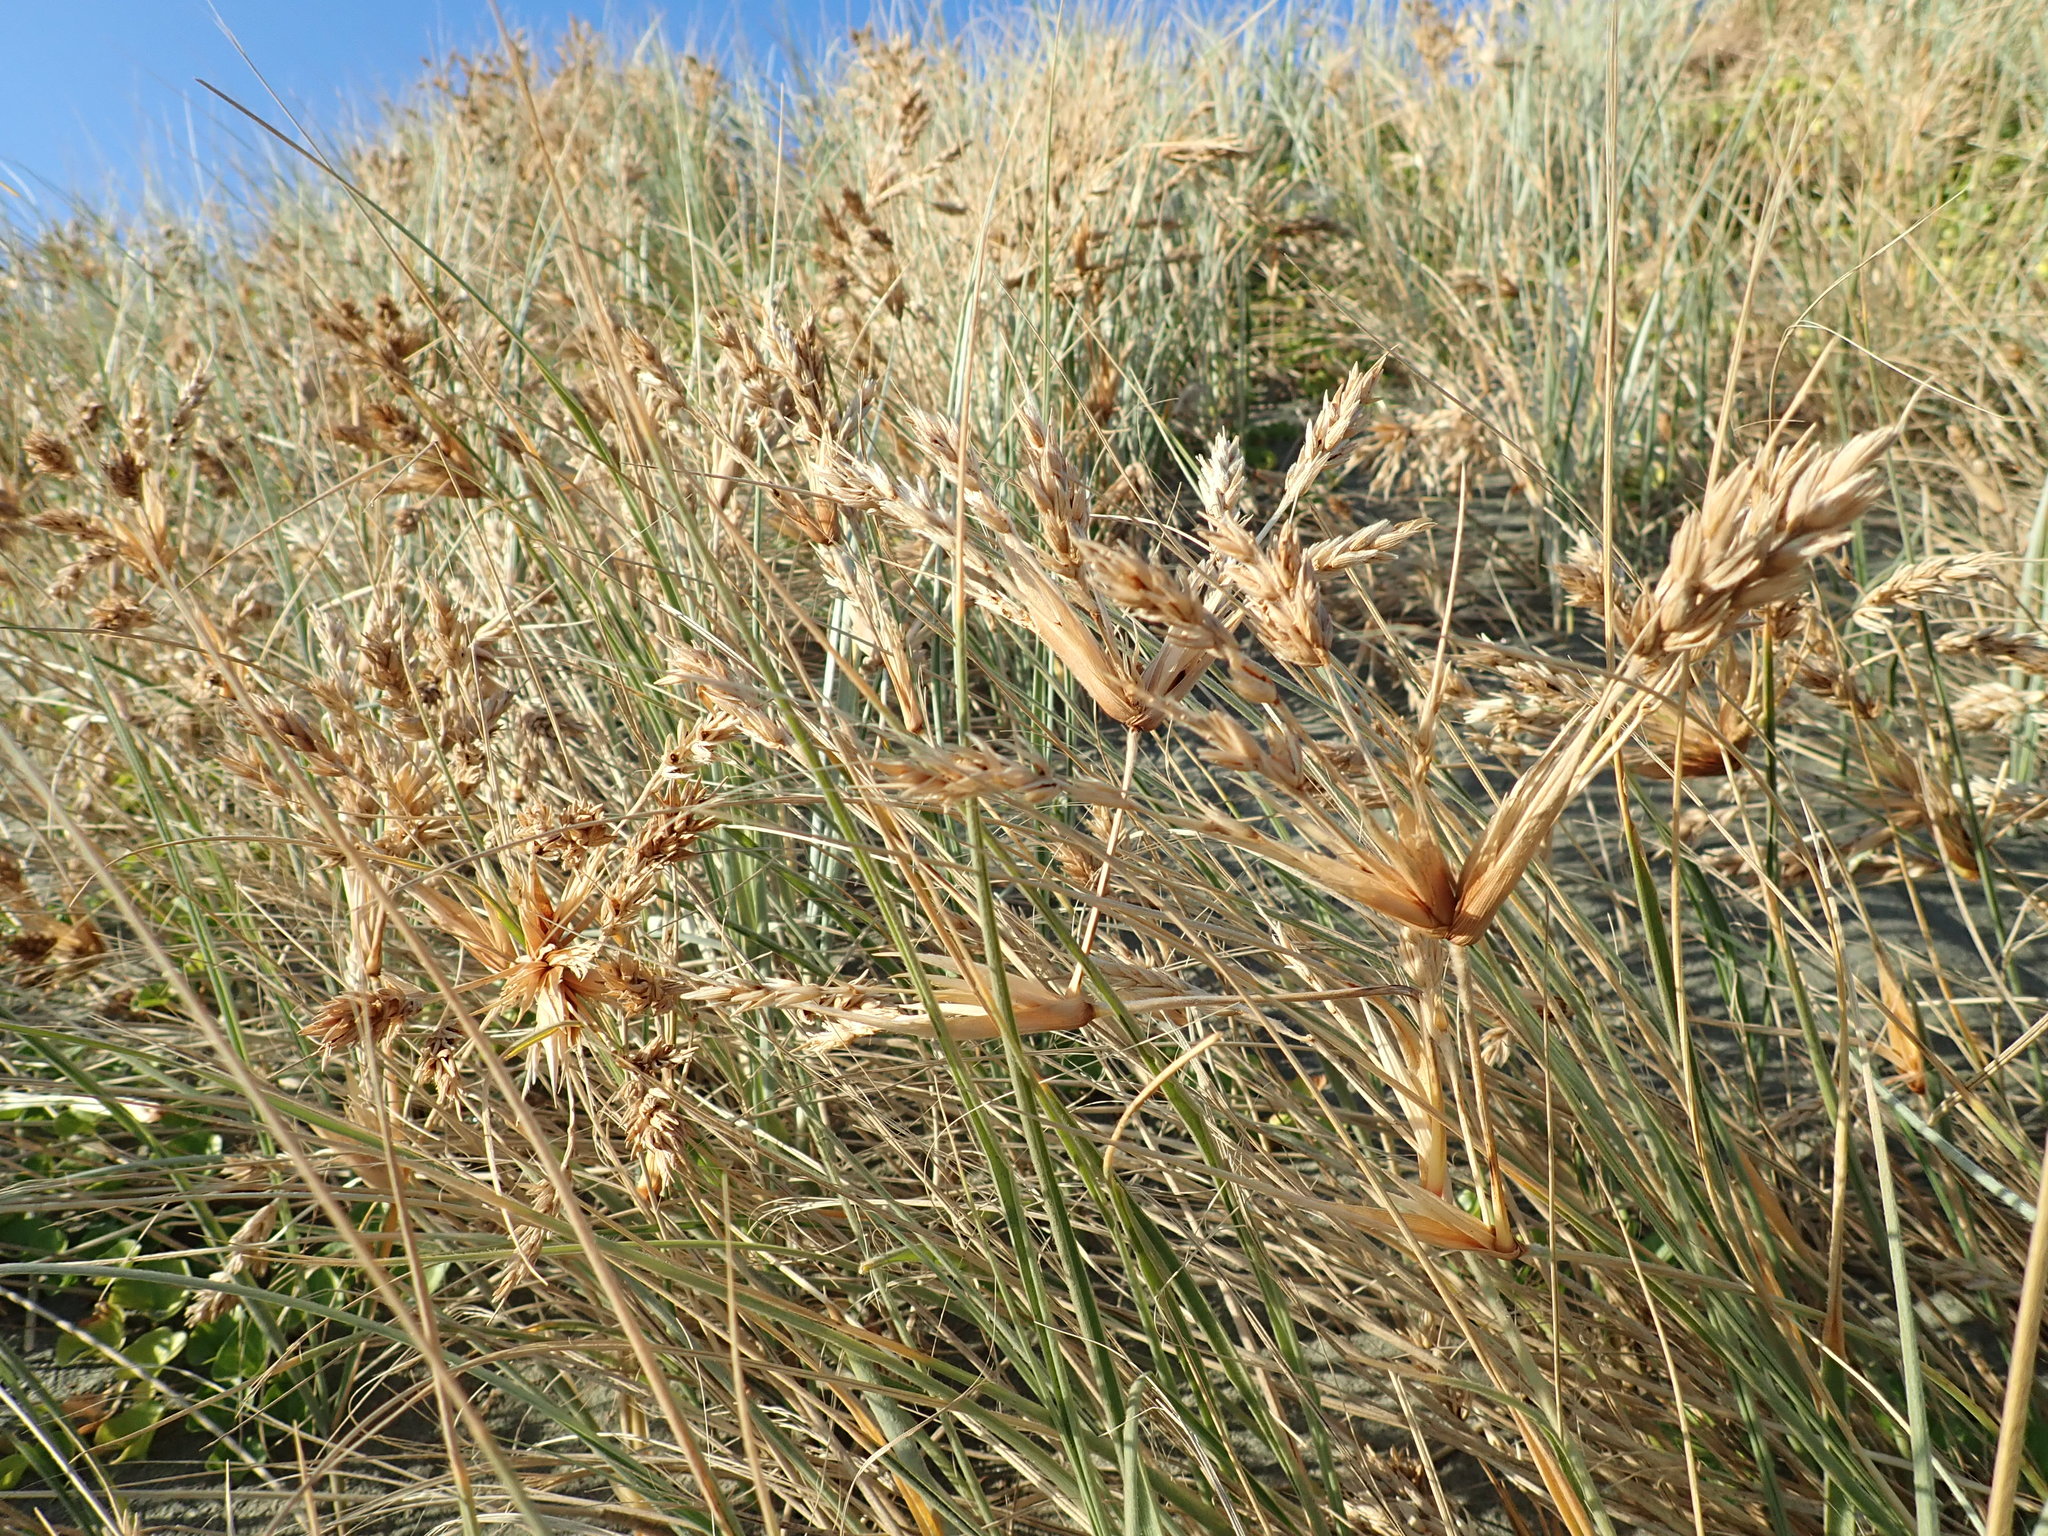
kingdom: Plantae
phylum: Tracheophyta
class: Liliopsida
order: Poales
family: Poaceae
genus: Spinifex
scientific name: Spinifex sericeus
